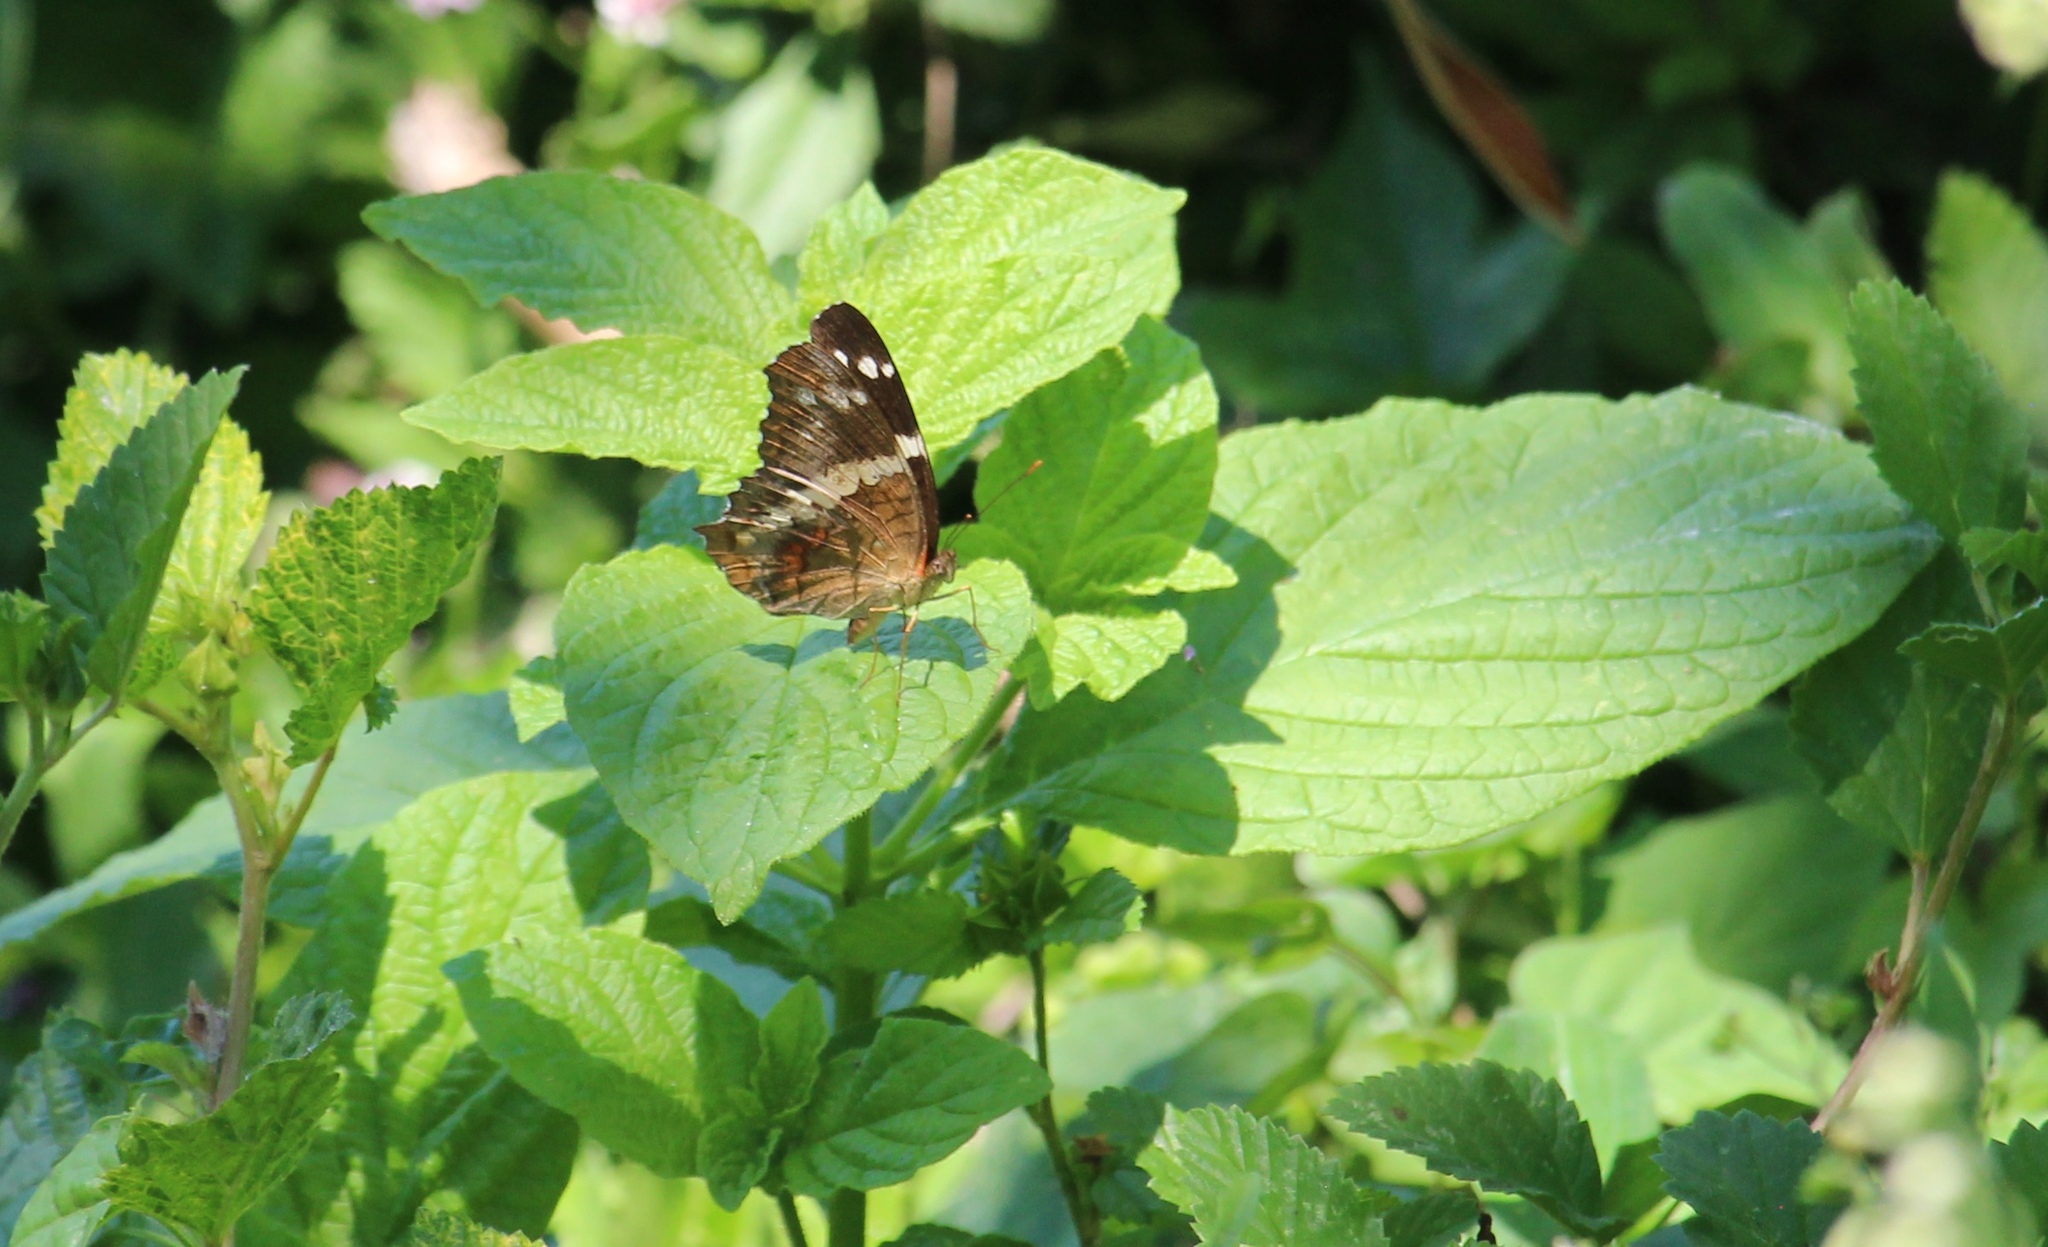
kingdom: Animalia
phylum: Arthropoda
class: Insecta
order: Lepidoptera
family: Nymphalidae
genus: Anartia
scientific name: Anartia fatima
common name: Banded peacock
